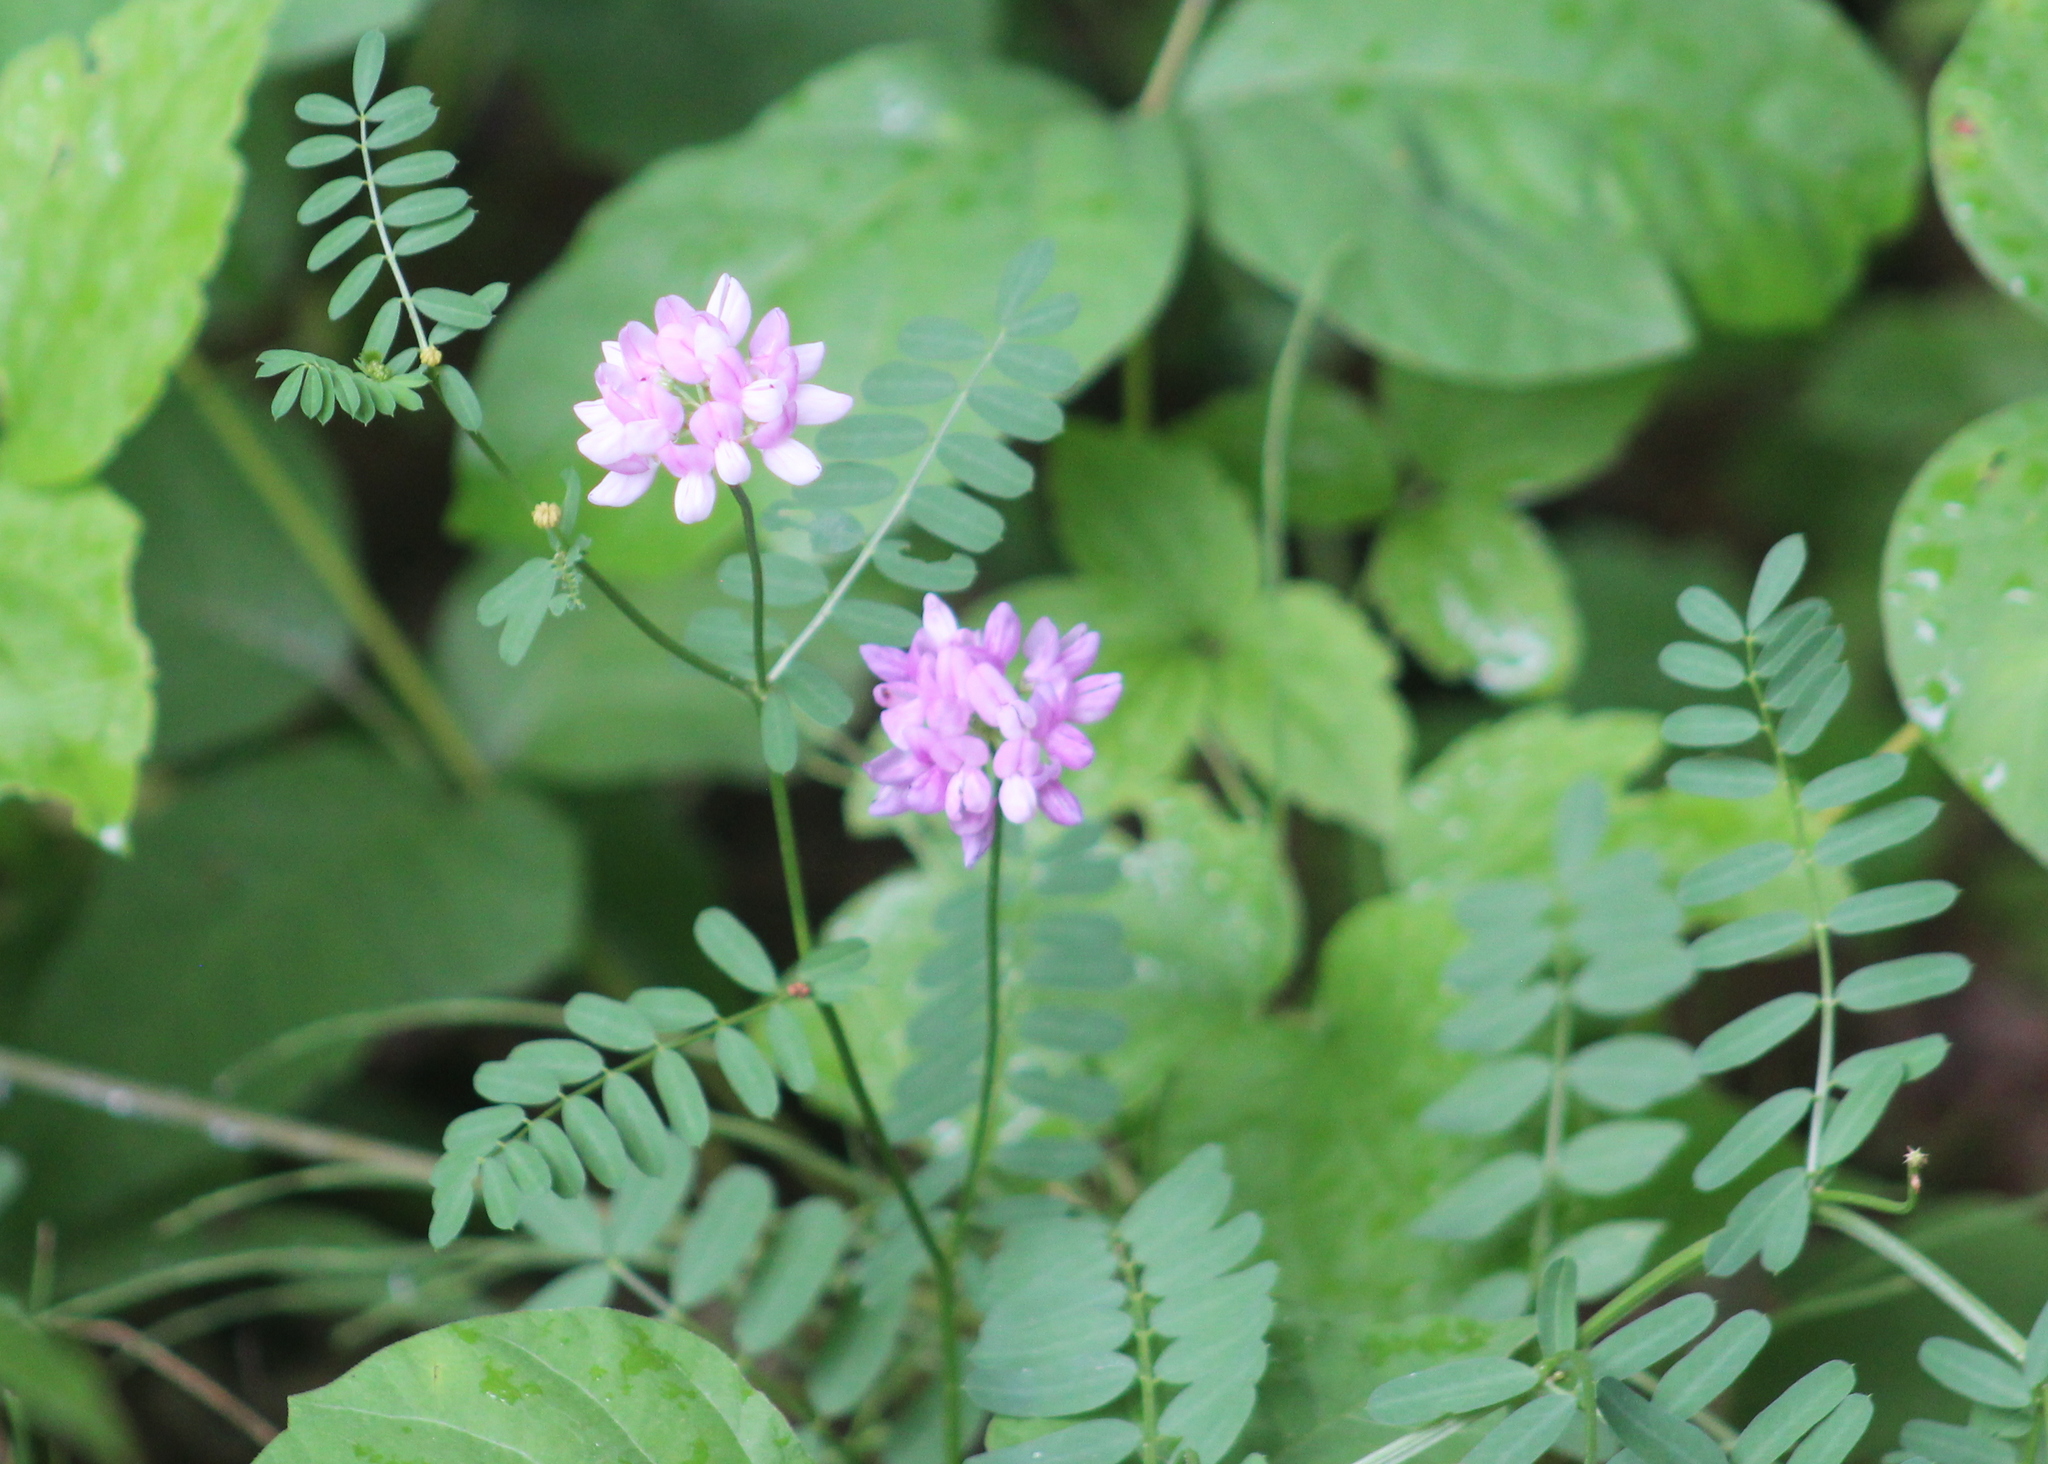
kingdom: Plantae
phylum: Tracheophyta
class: Magnoliopsida
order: Fabales
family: Fabaceae
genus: Coronilla
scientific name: Coronilla varia
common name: Crownvetch
